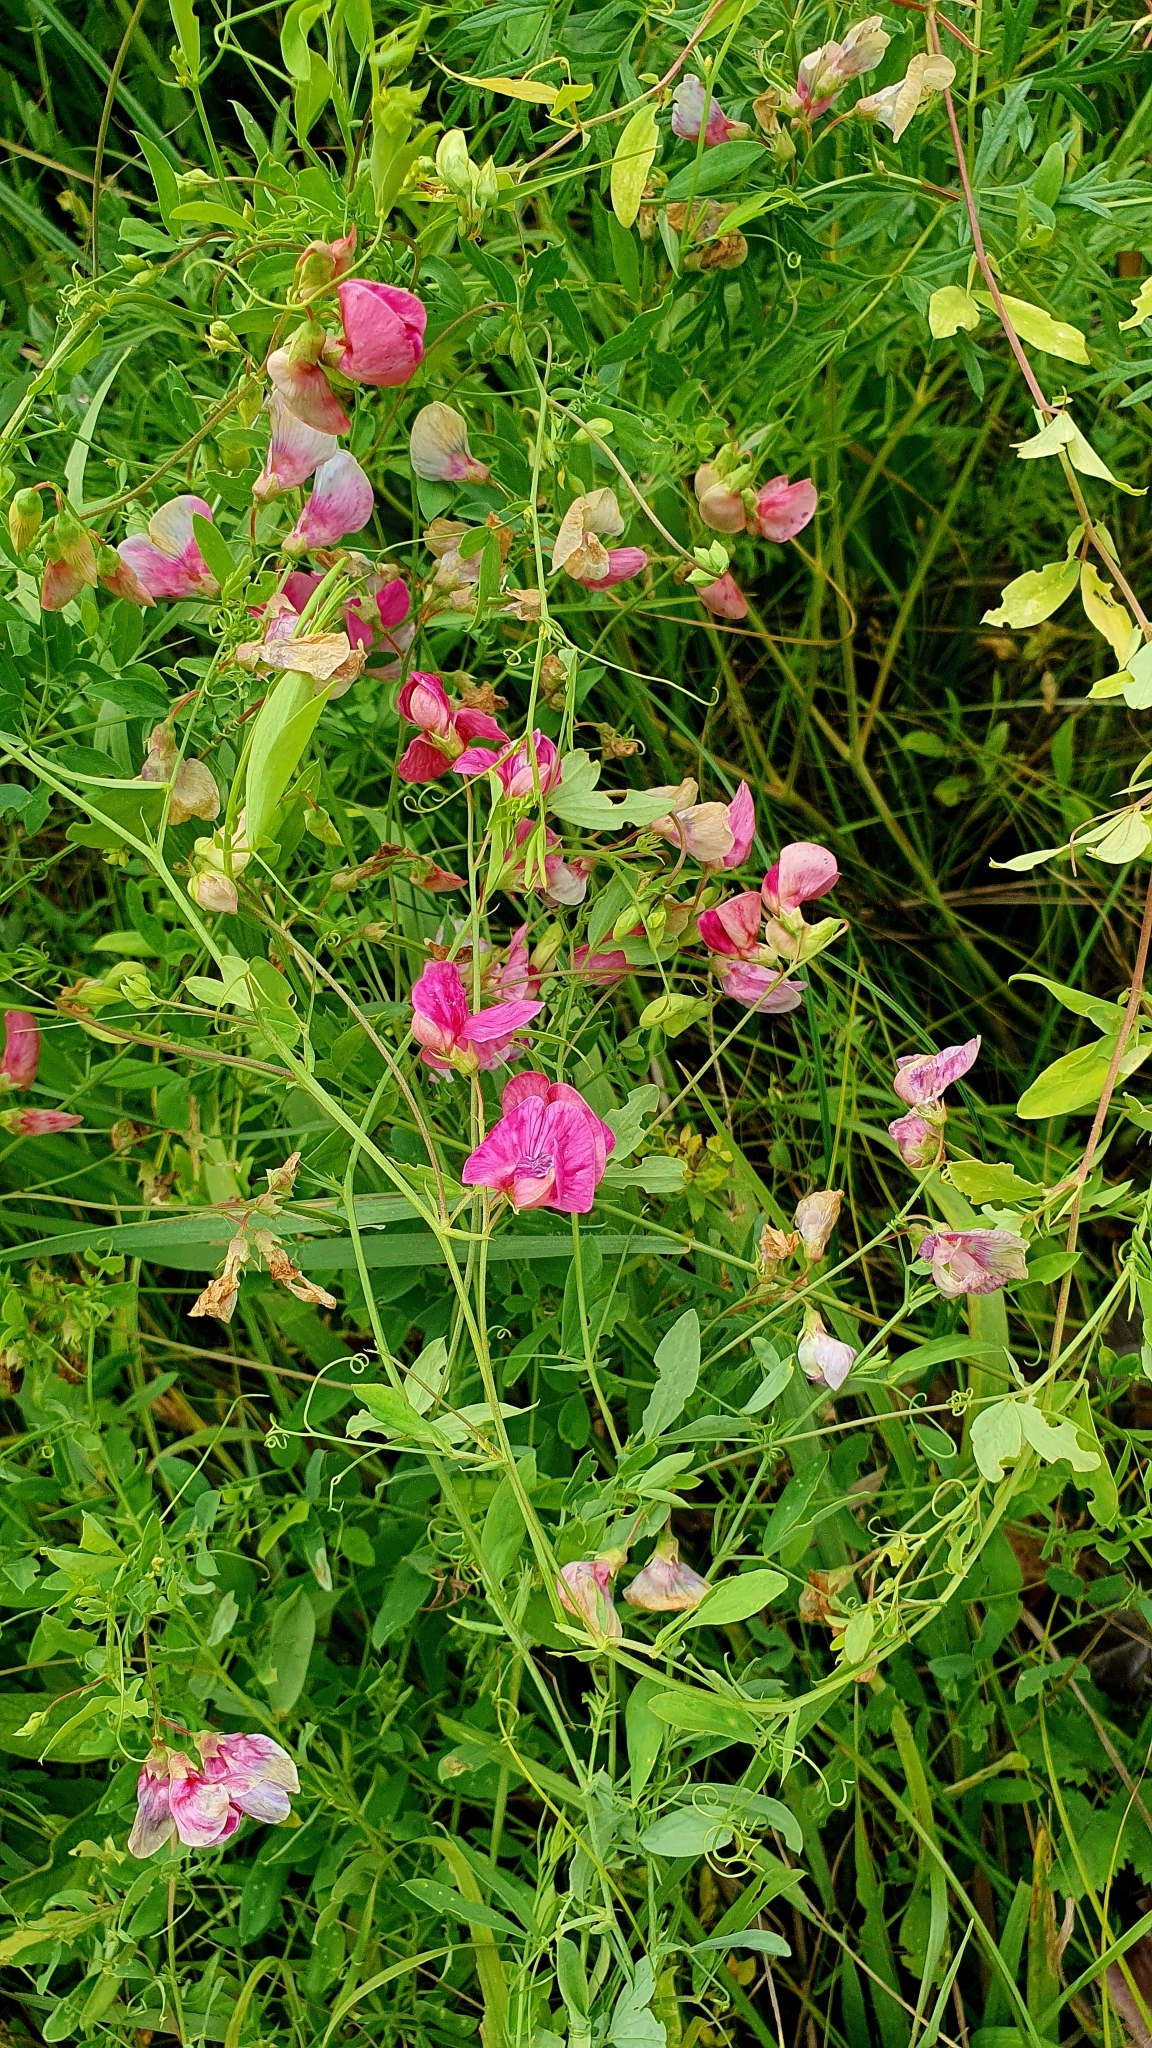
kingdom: Plantae
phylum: Tracheophyta
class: Magnoliopsida
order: Fabales
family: Fabaceae
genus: Lathyrus
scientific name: Lathyrus tuberosus
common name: Tuberous pea
